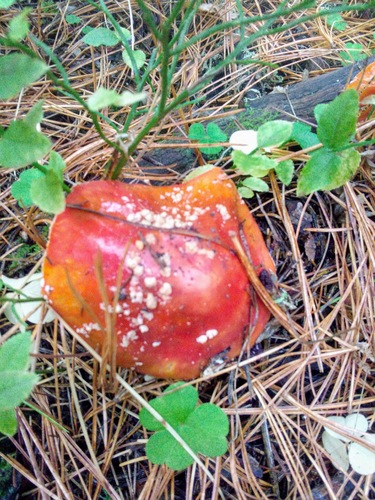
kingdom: Fungi
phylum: Basidiomycota
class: Agaricomycetes
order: Agaricales
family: Amanitaceae
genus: Amanita
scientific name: Amanita muscaria
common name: Fly agaric
